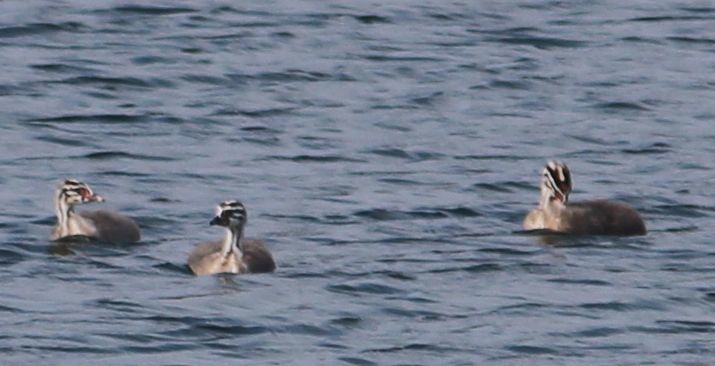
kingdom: Animalia
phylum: Chordata
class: Aves
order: Podicipediformes
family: Podicipedidae
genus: Podiceps
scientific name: Podiceps cristatus
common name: Great crested grebe
